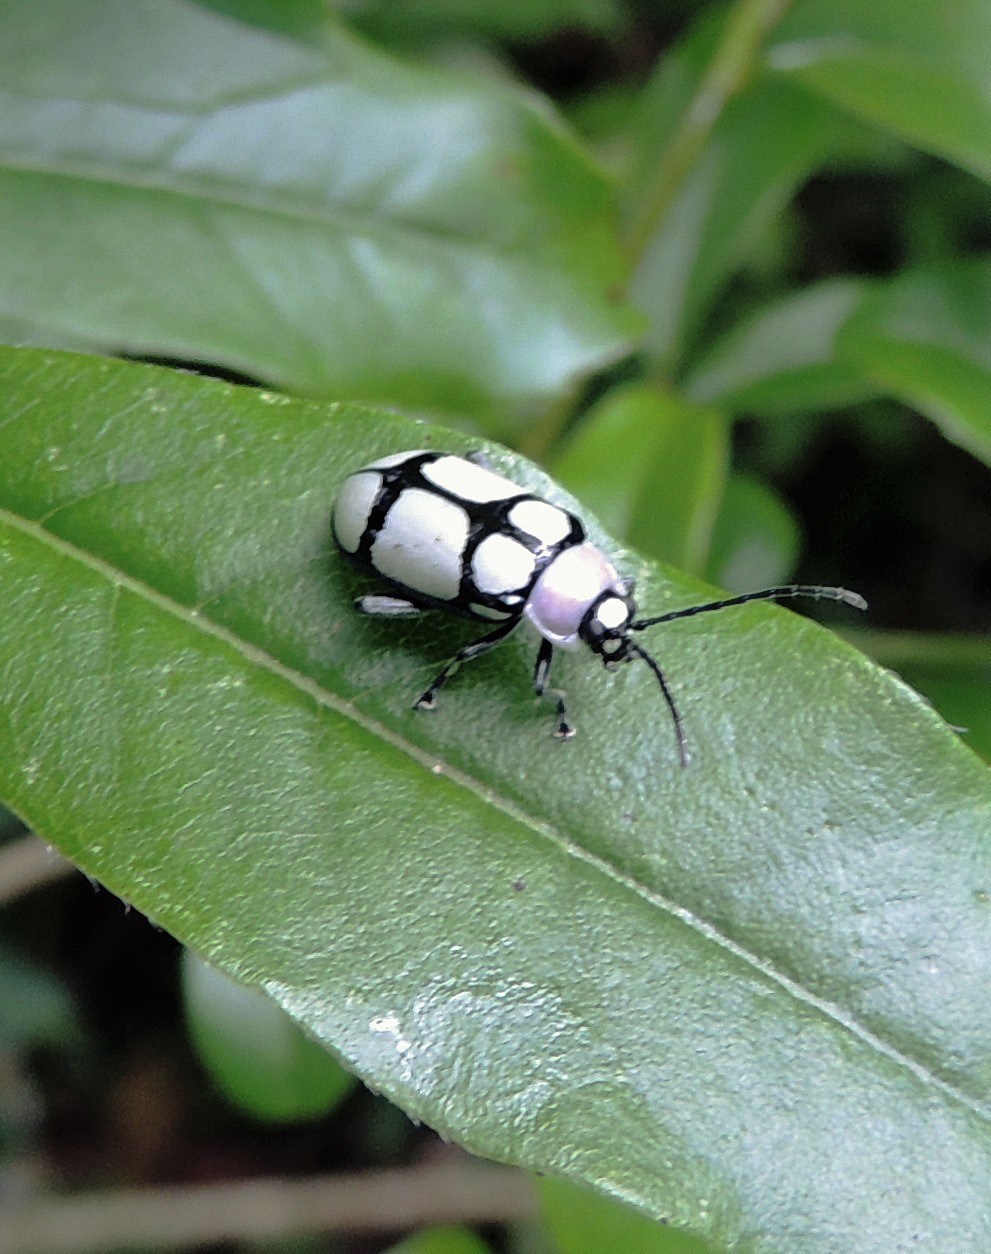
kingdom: Animalia
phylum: Arthropoda
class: Insecta
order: Coleoptera
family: Chrysomelidae
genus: Omophoita
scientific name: Omophoita
